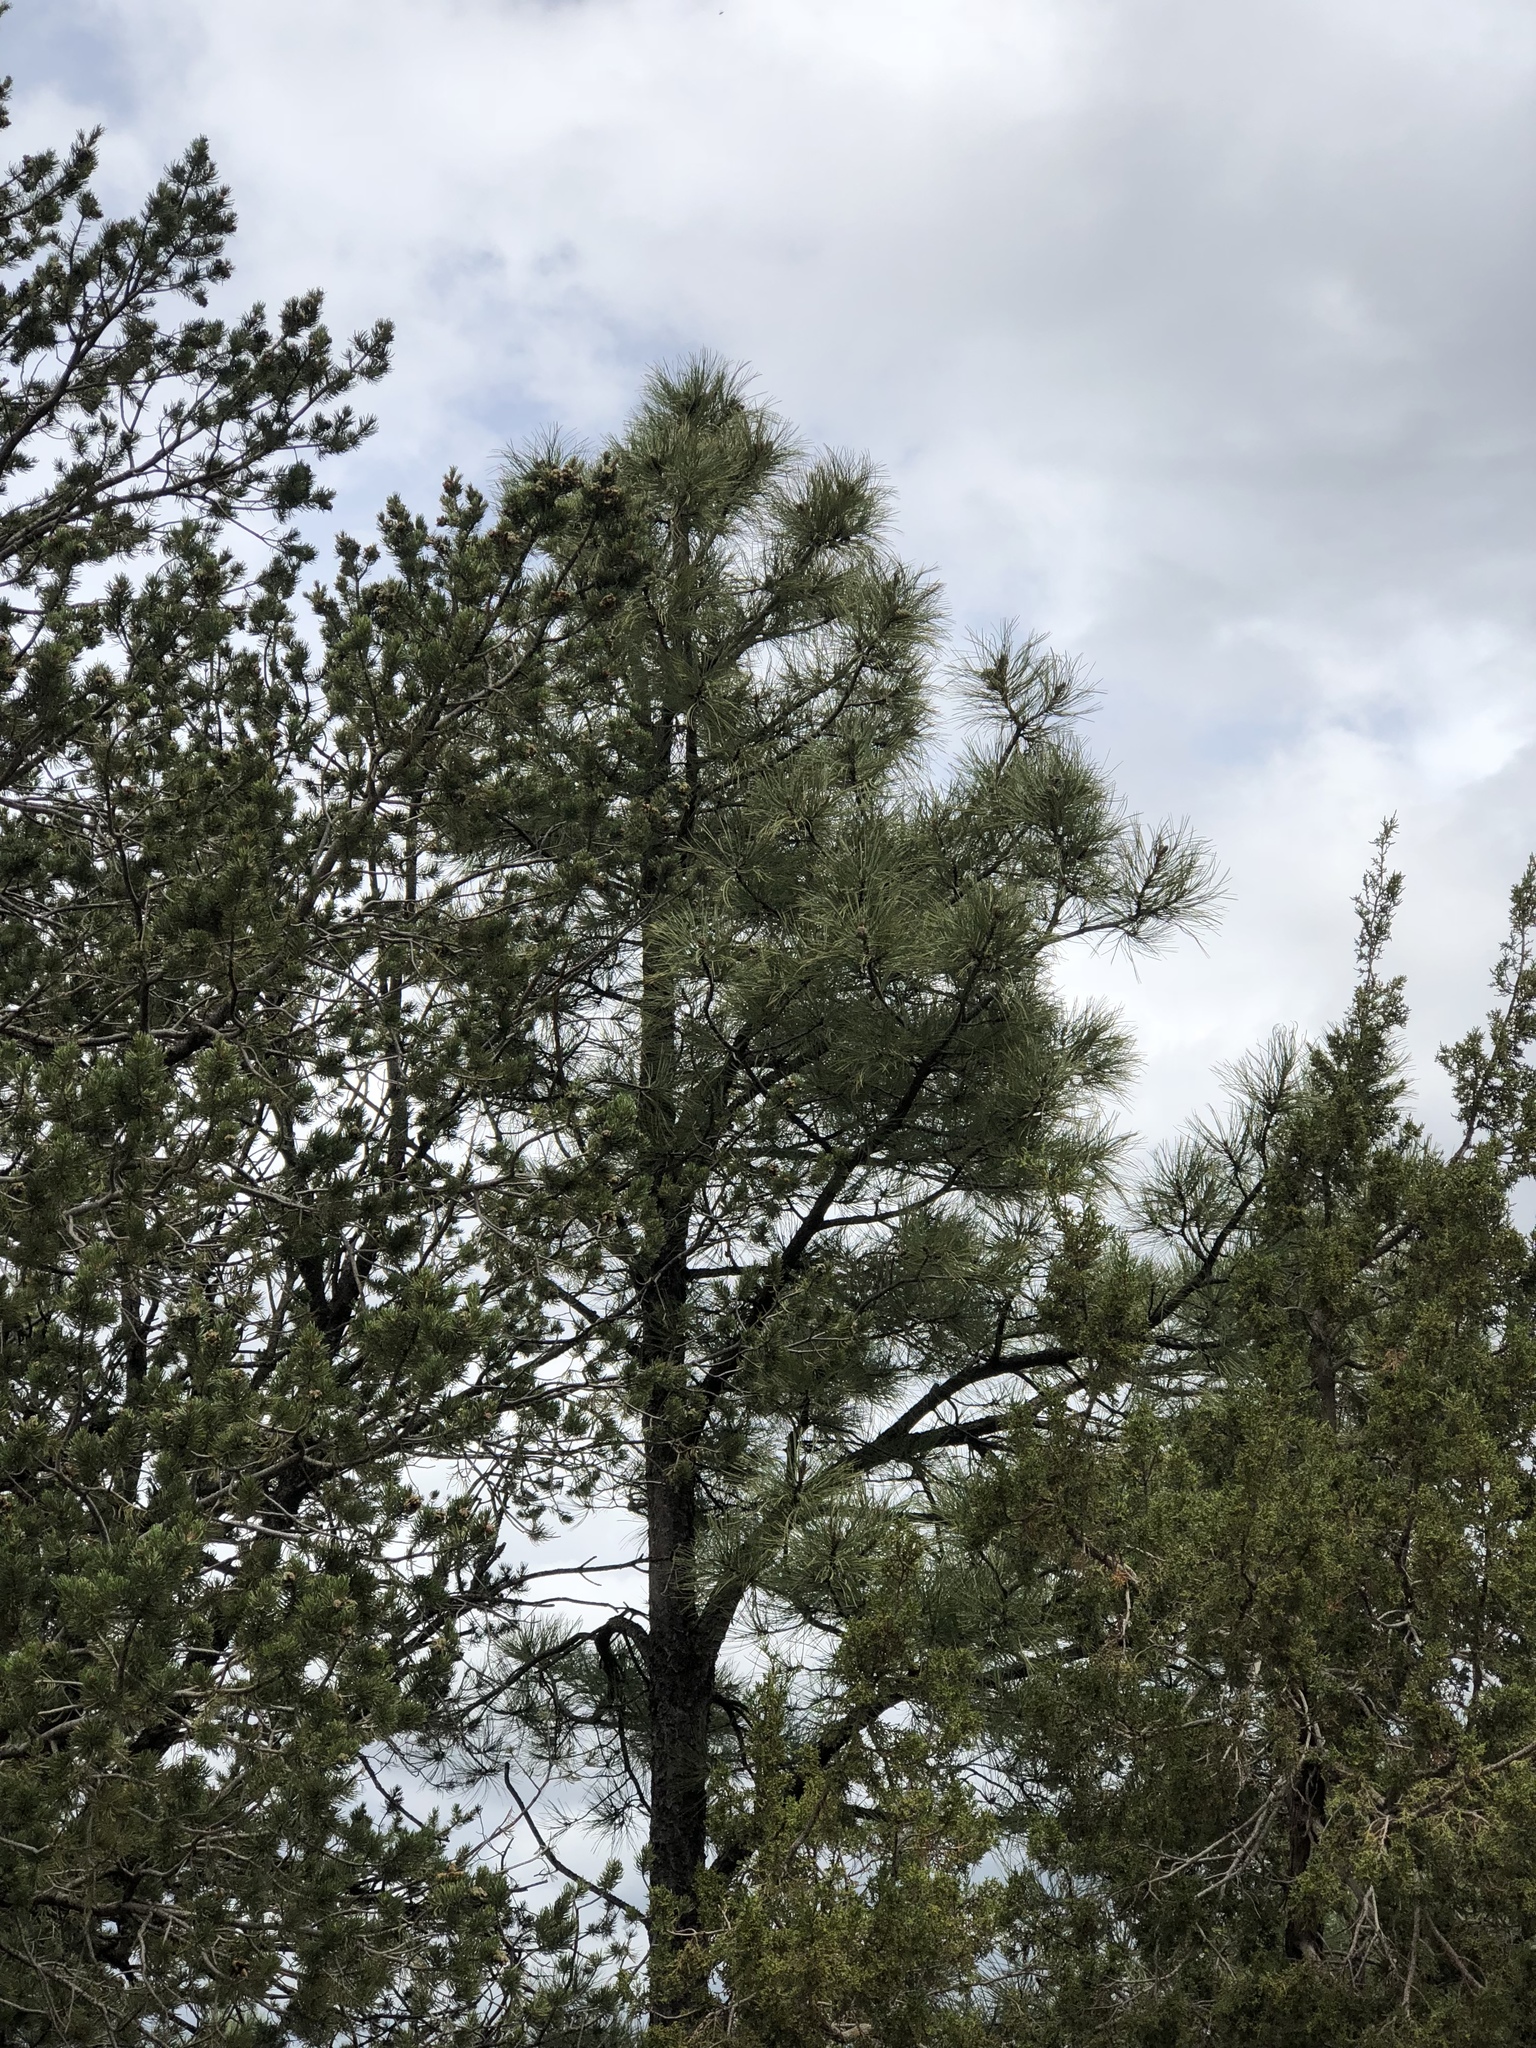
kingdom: Plantae
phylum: Tracheophyta
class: Pinopsida
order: Pinales
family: Pinaceae
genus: Pinus
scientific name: Pinus ponderosa
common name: Western yellow-pine
